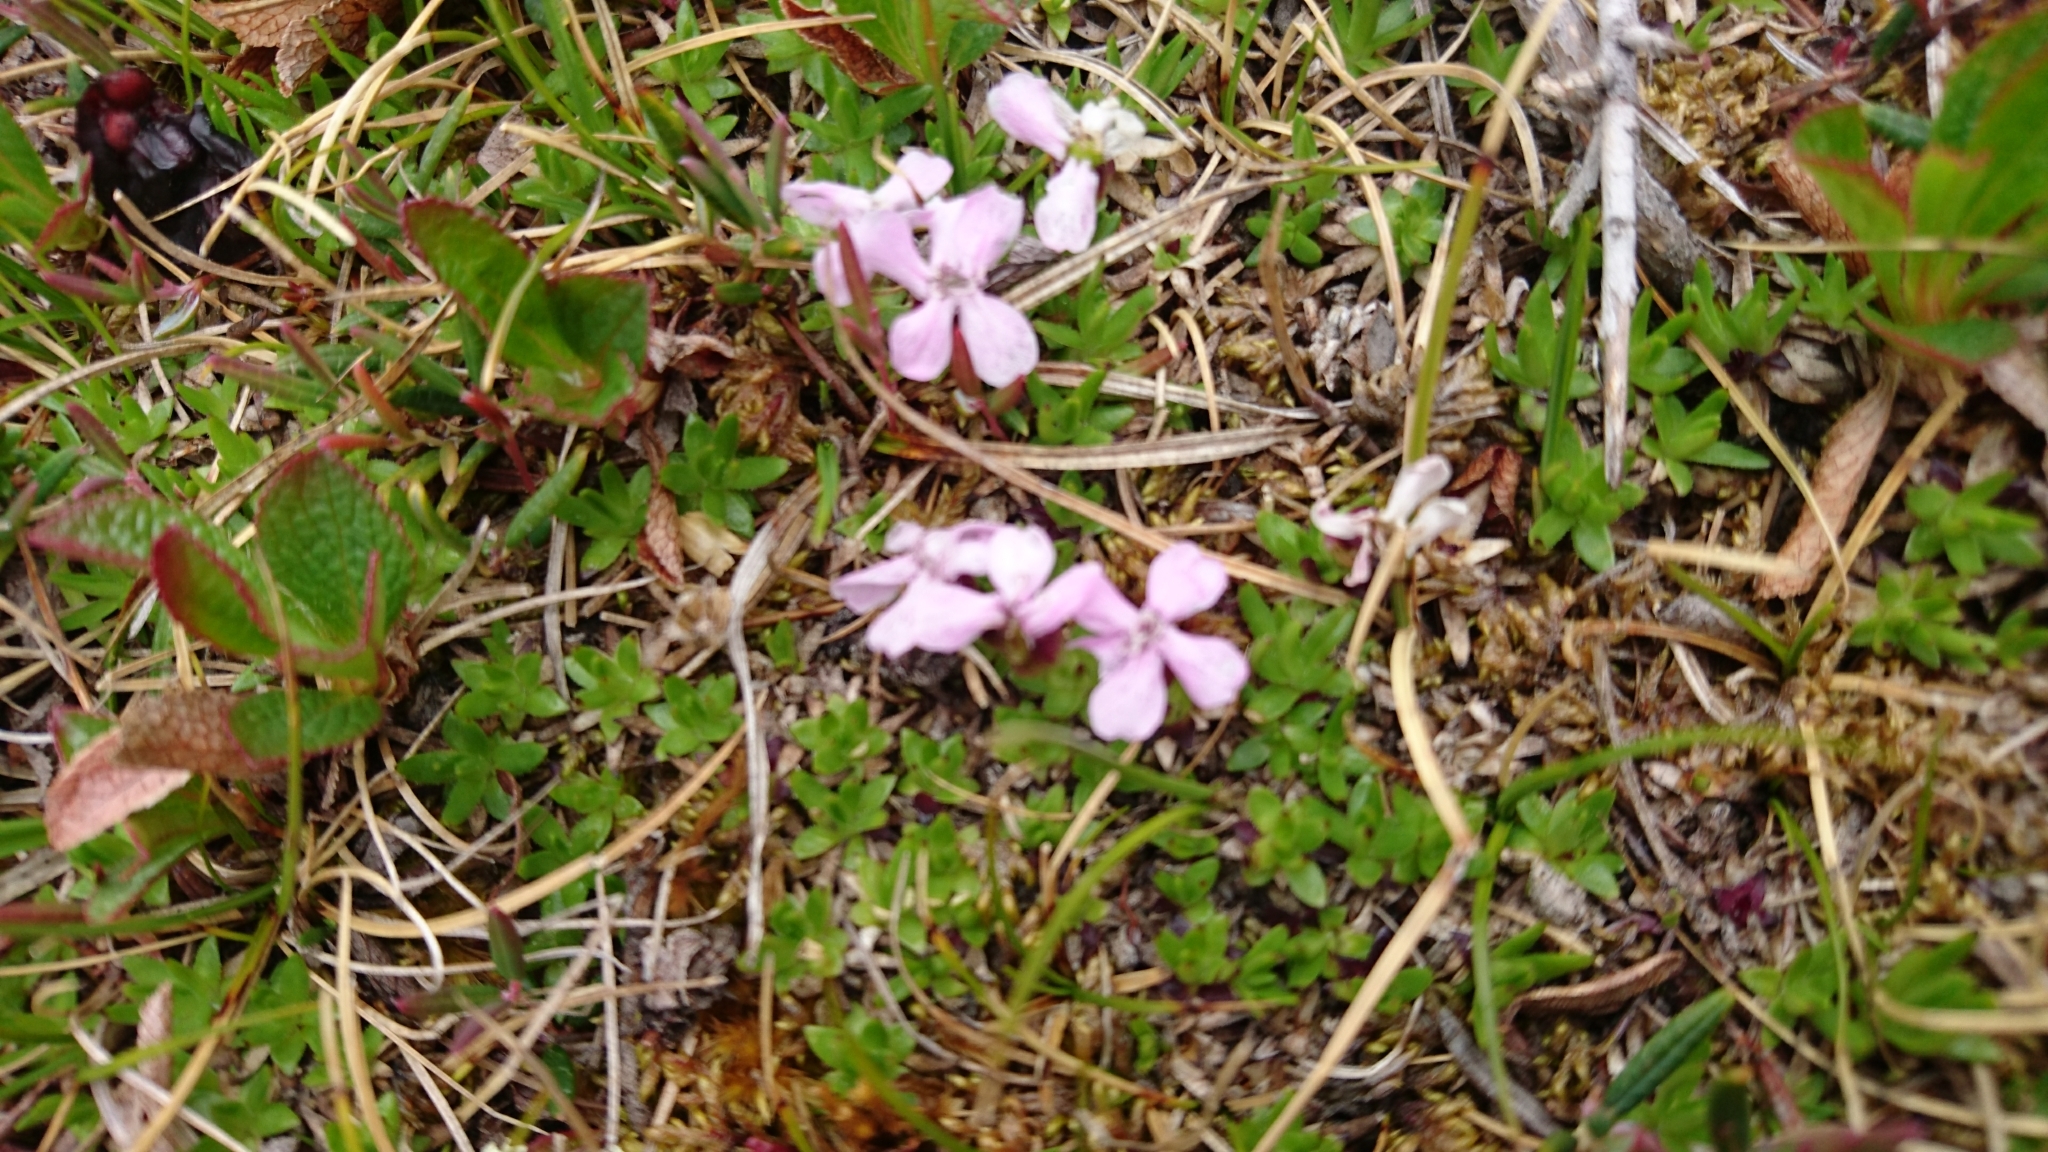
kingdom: Plantae
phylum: Tracheophyta
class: Magnoliopsida
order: Caryophyllales
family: Caryophyllaceae
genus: Silene
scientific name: Silene acaulis
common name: Moss campion
